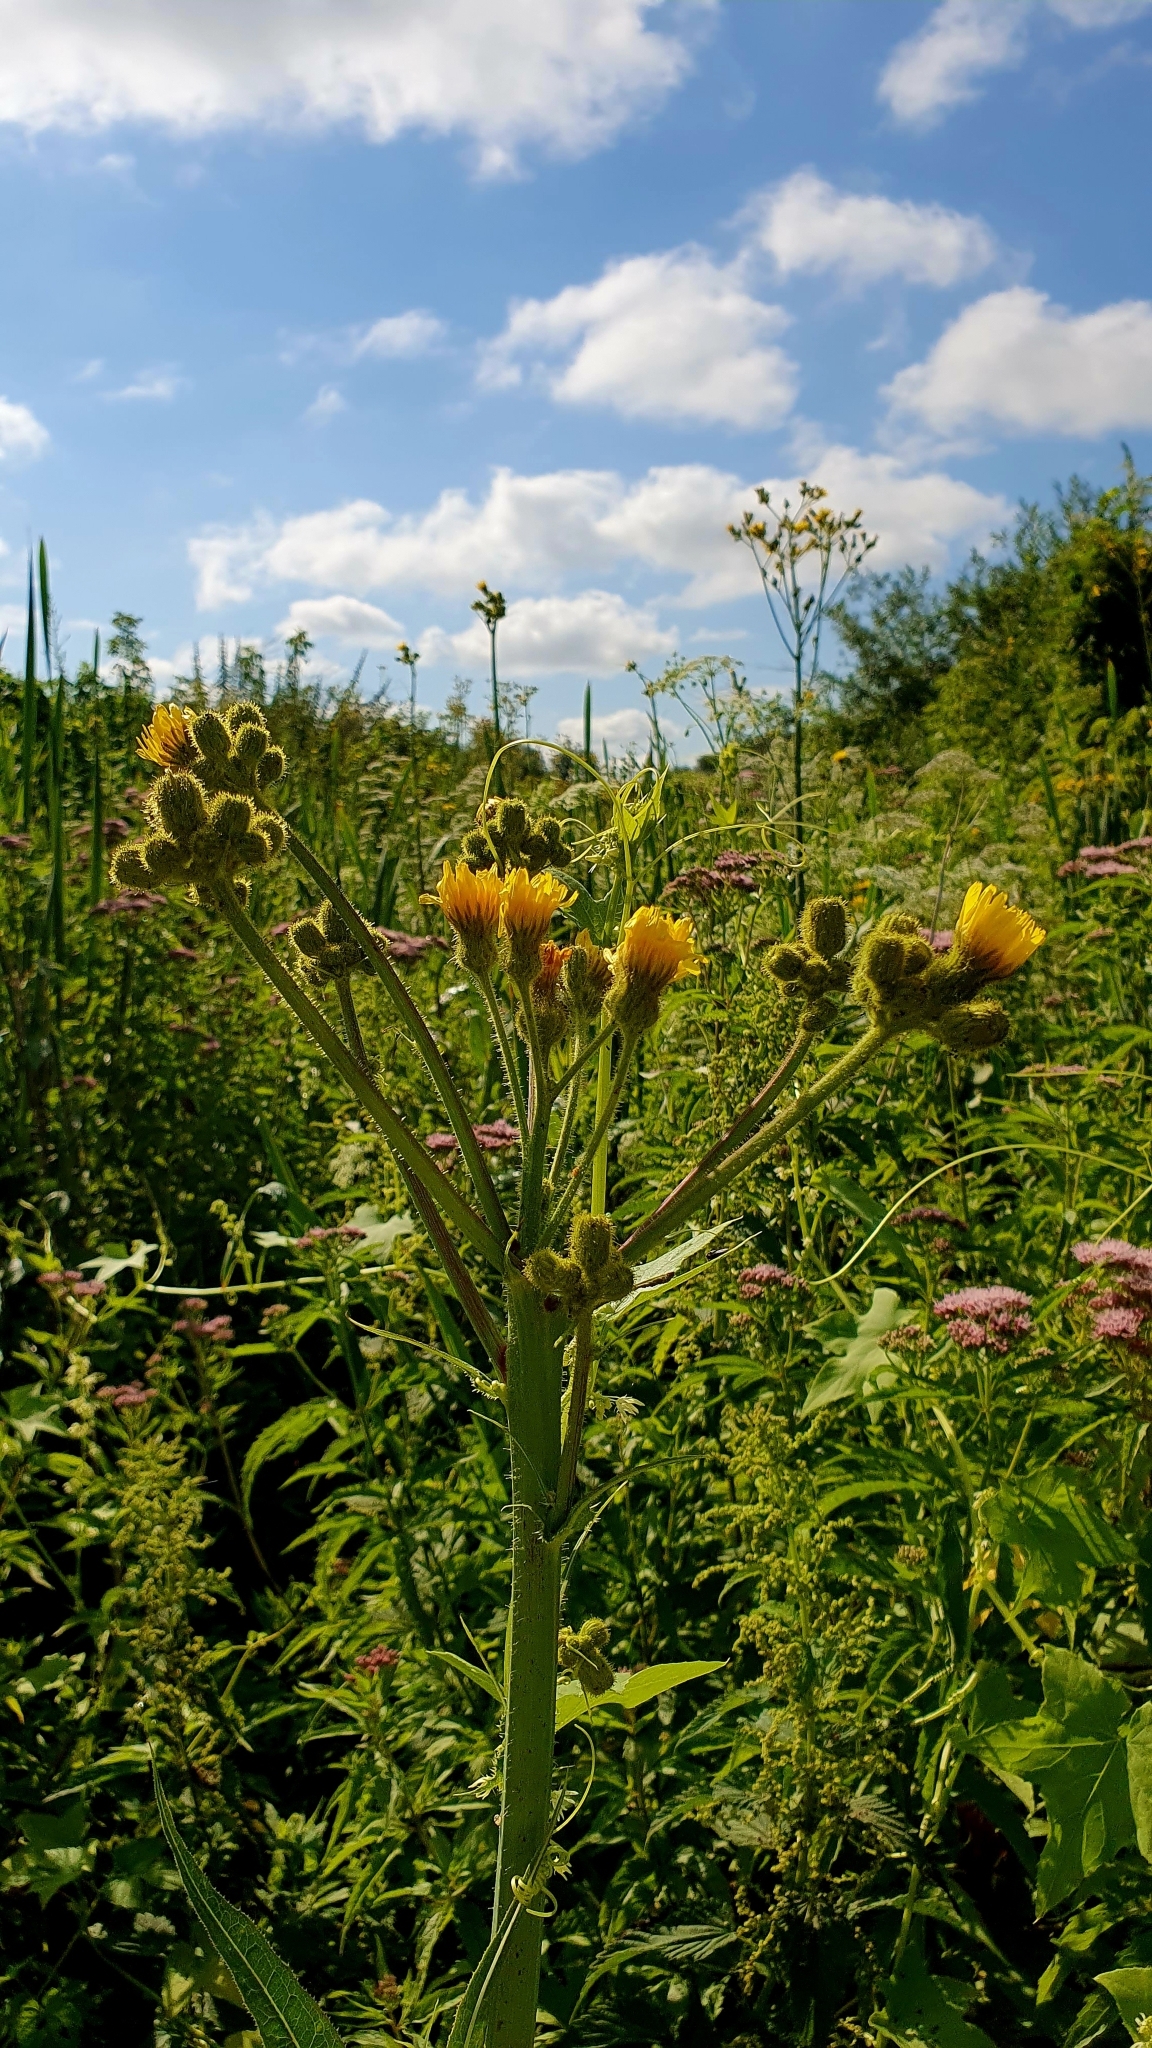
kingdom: Plantae
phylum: Tracheophyta
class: Magnoliopsida
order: Asterales
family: Asteraceae
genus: Sonchus
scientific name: Sonchus palustris
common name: Marsh sow-thistle
